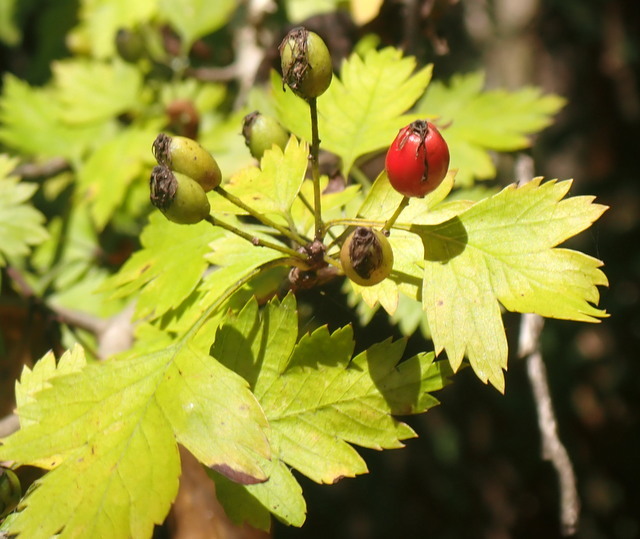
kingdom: Plantae
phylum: Tracheophyta
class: Magnoliopsida
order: Rosales
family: Rosaceae
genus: Crataegus
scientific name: Crataegus marshallii
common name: Parsley-hawthorn
